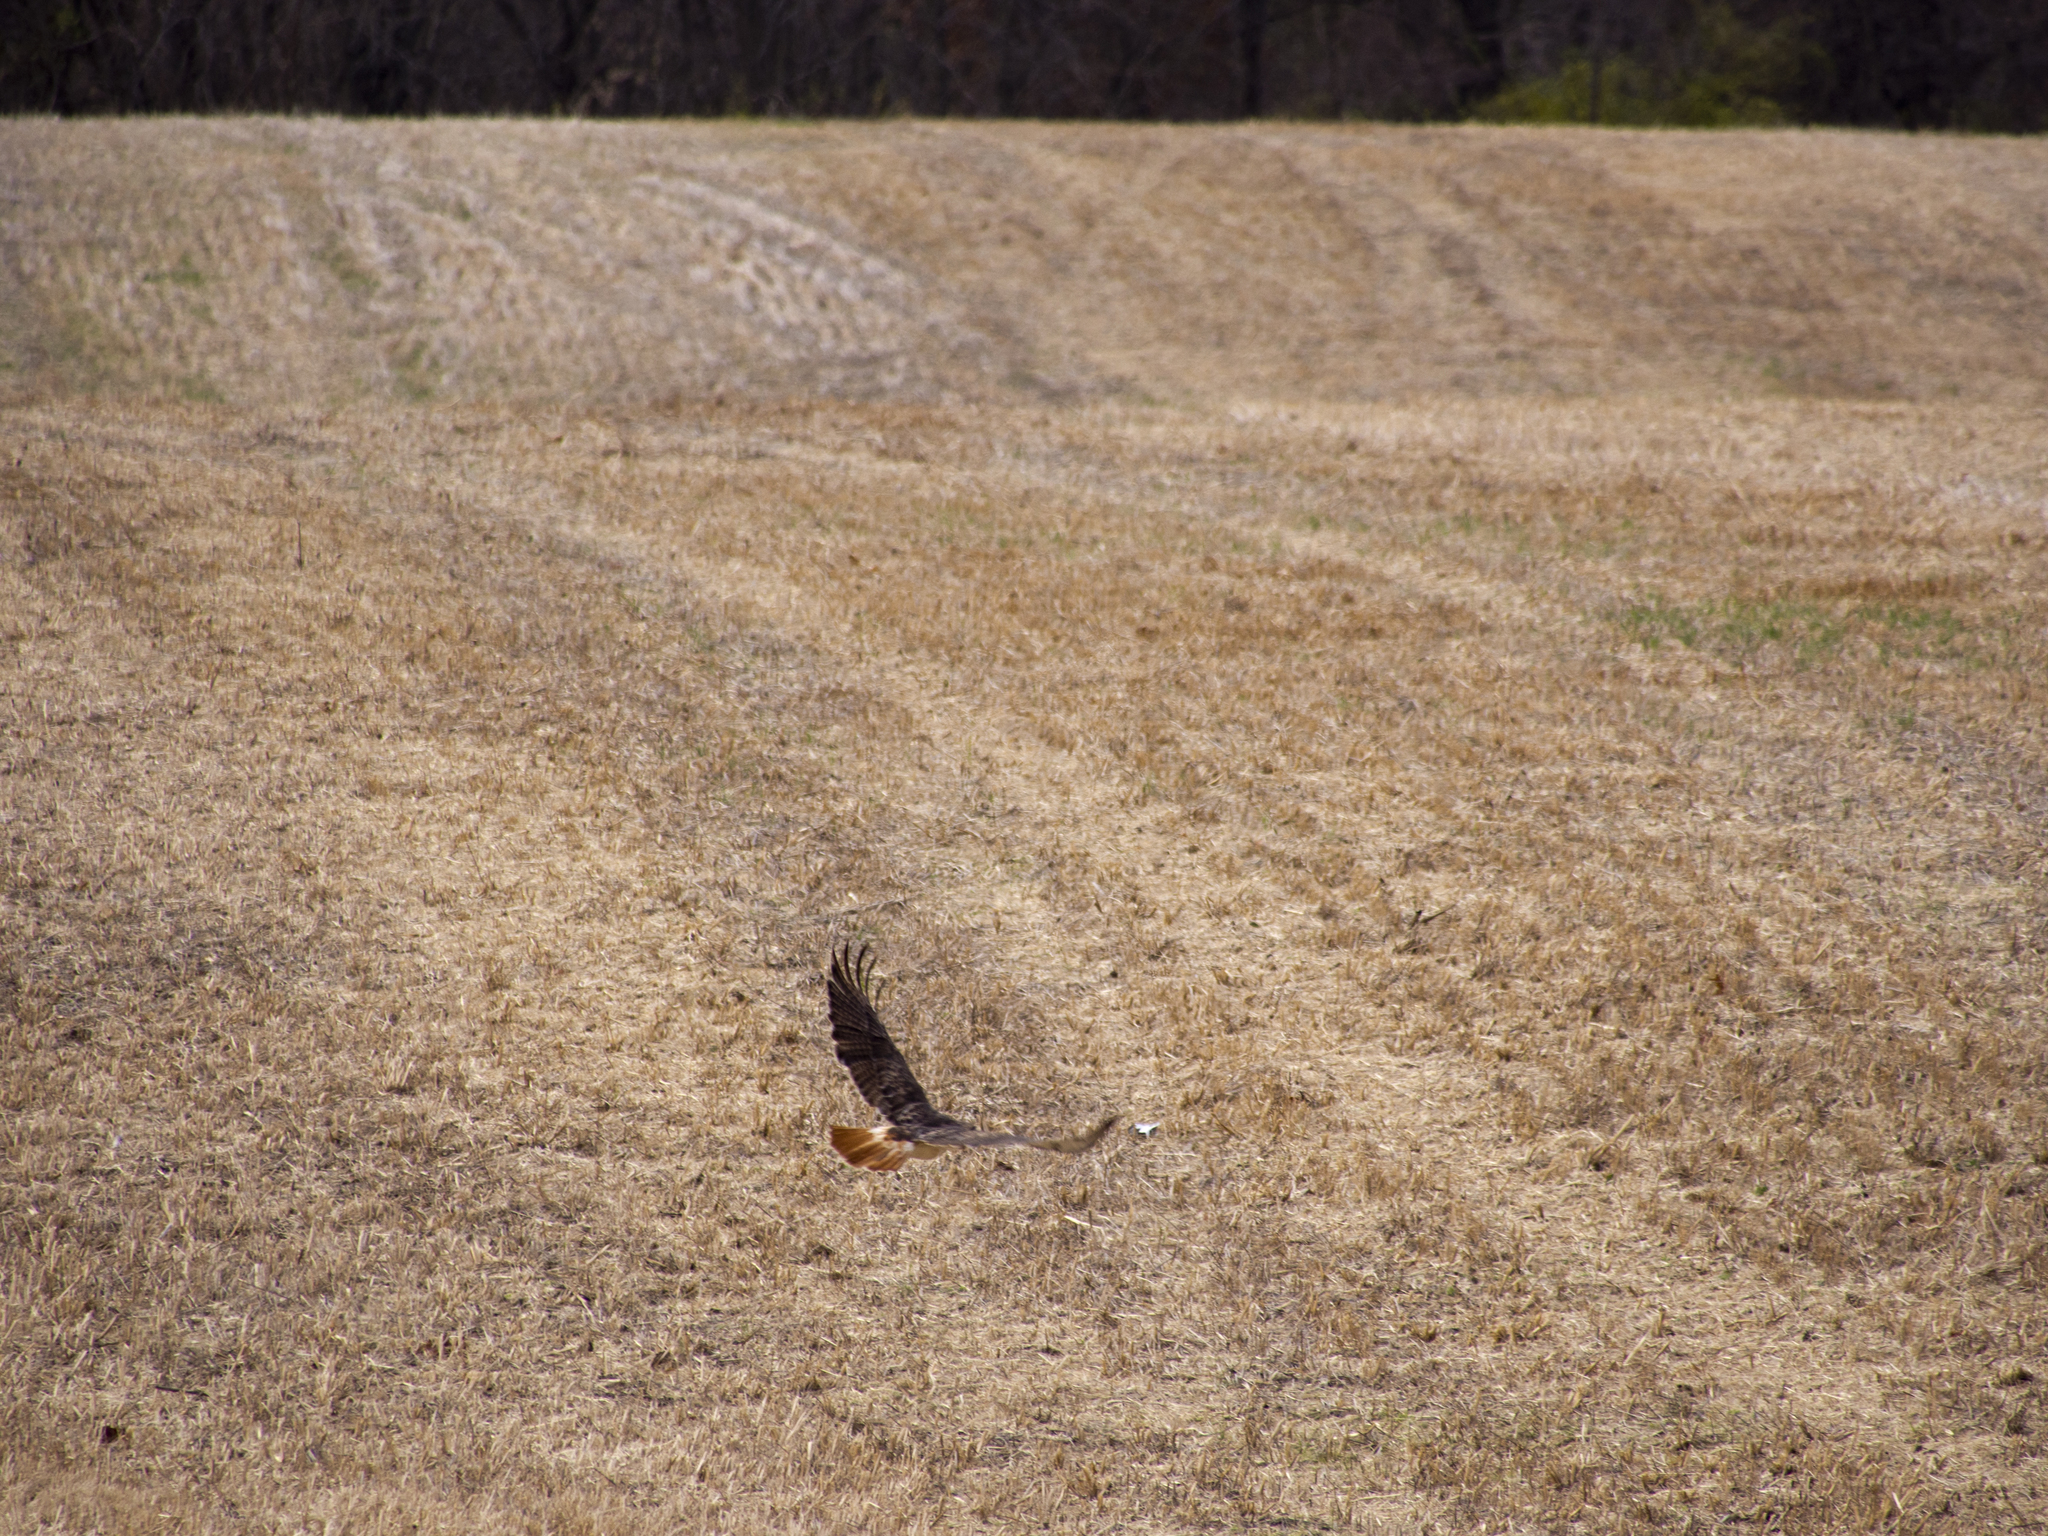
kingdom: Animalia
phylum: Chordata
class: Aves
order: Accipitriformes
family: Accipitridae
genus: Buteo
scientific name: Buteo jamaicensis
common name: Red-tailed hawk
